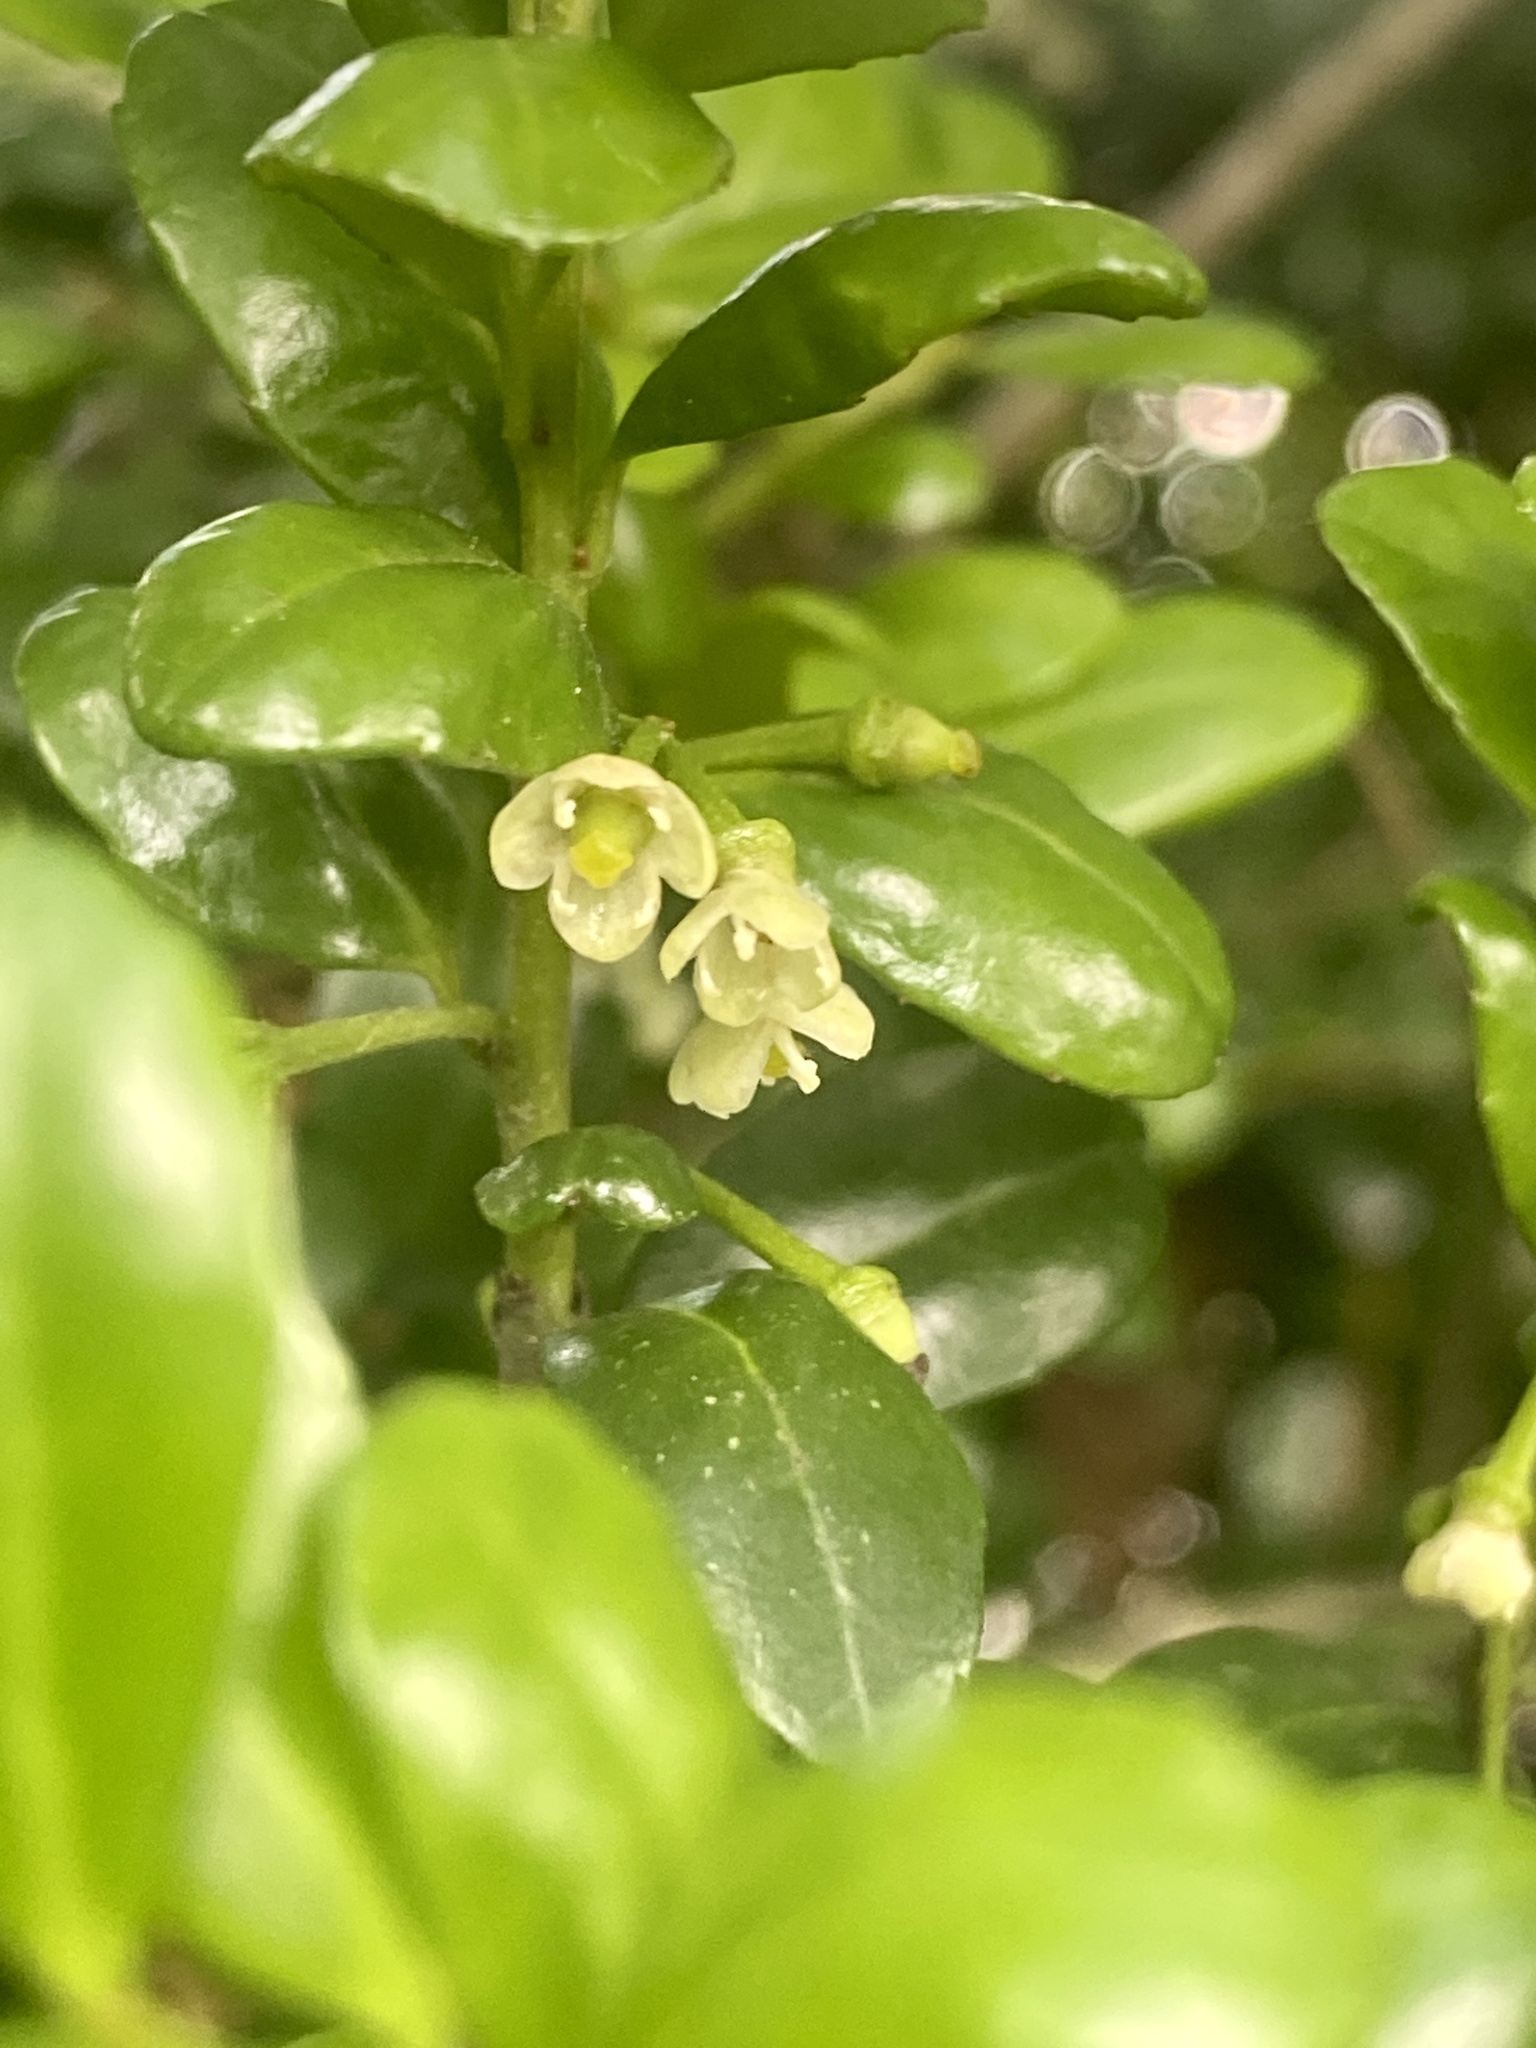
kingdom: Plantae
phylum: Tracheophyta
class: Magnoliopsida
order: Aquifoliales
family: Aquifoliaceae
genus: Ilex
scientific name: Ilex crenata
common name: Japanese holly
